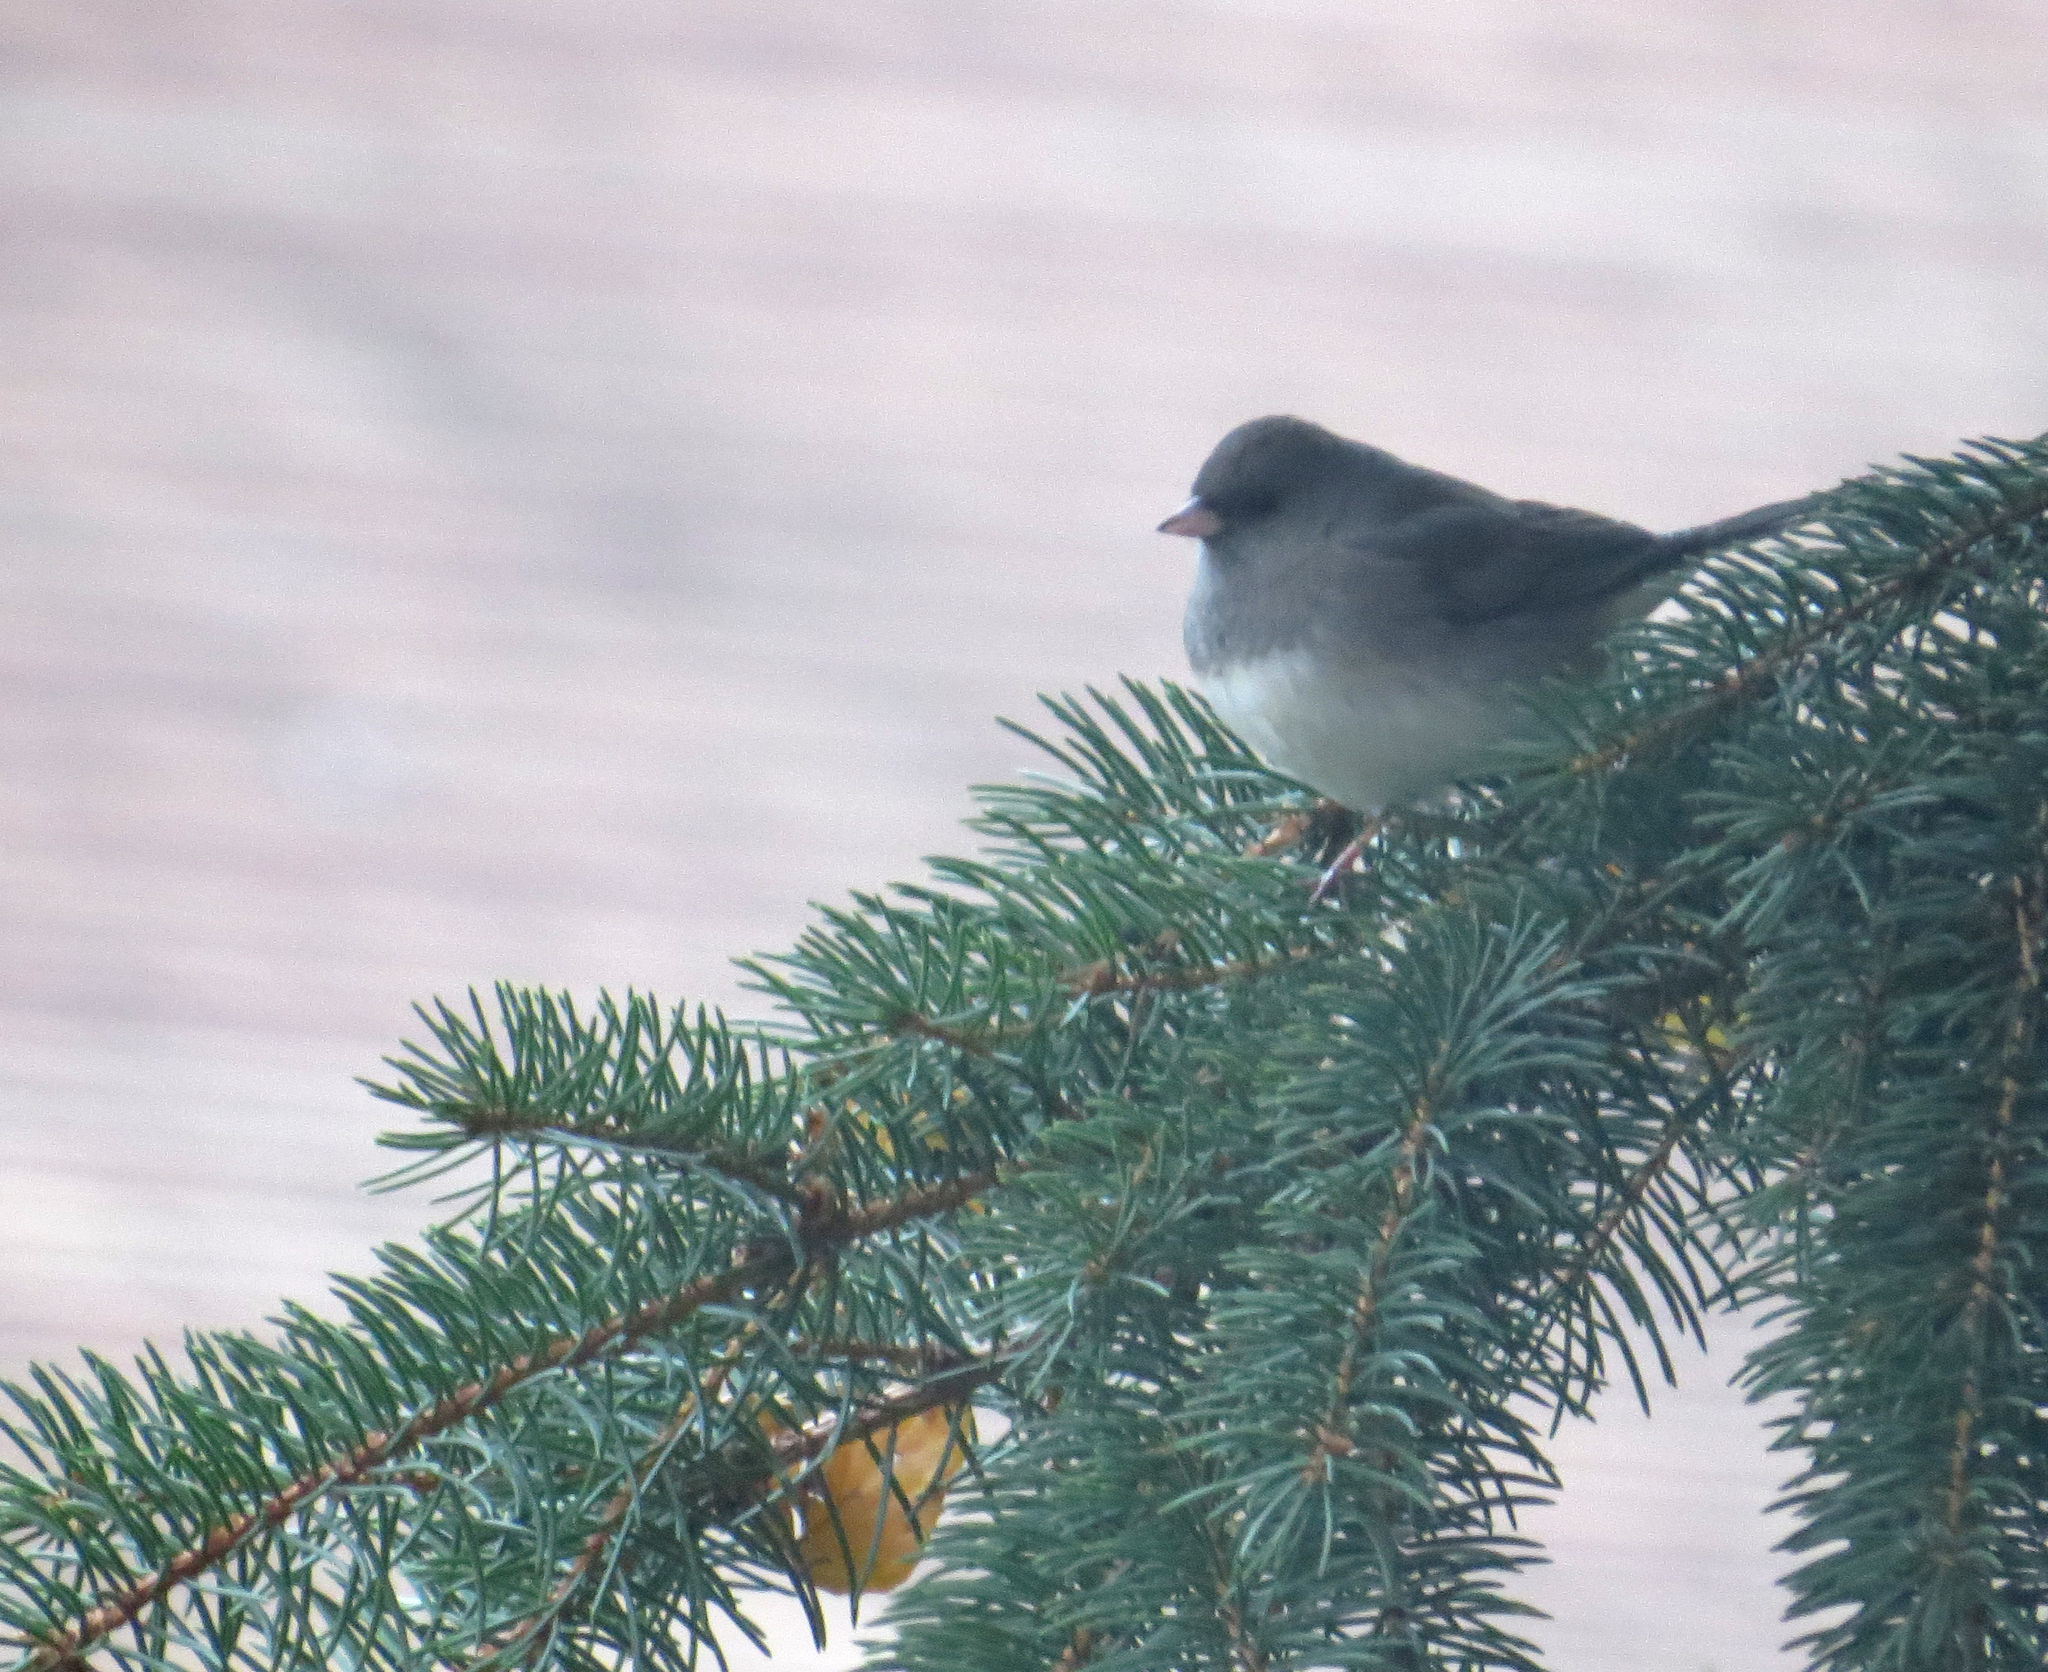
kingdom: Animalia
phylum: Chordata
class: Aves
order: Passeriformes
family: Passerellidae
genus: Junco
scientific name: Junco hyemalis
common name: Dark-eyed junco
